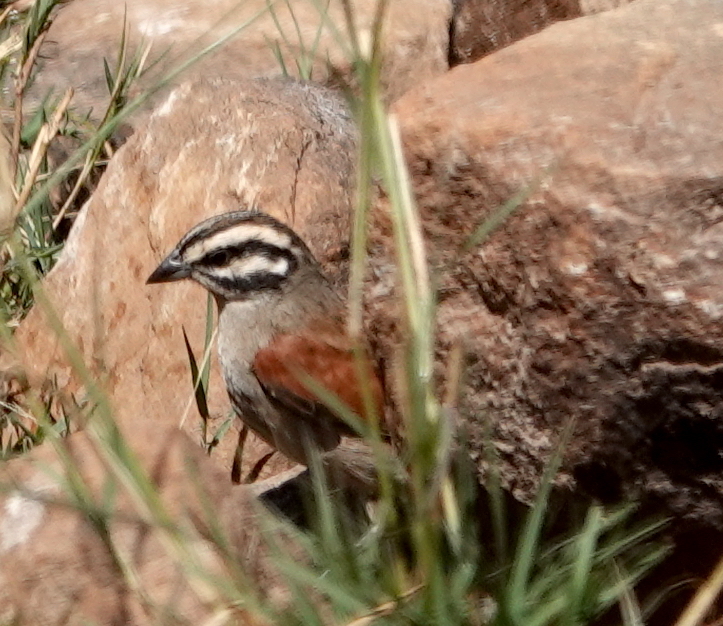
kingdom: Animalia
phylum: Chordata
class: Aves
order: Passeriformes
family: Emberizidae
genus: Emberiza
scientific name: Emberiza capensis
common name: Cape bunting
